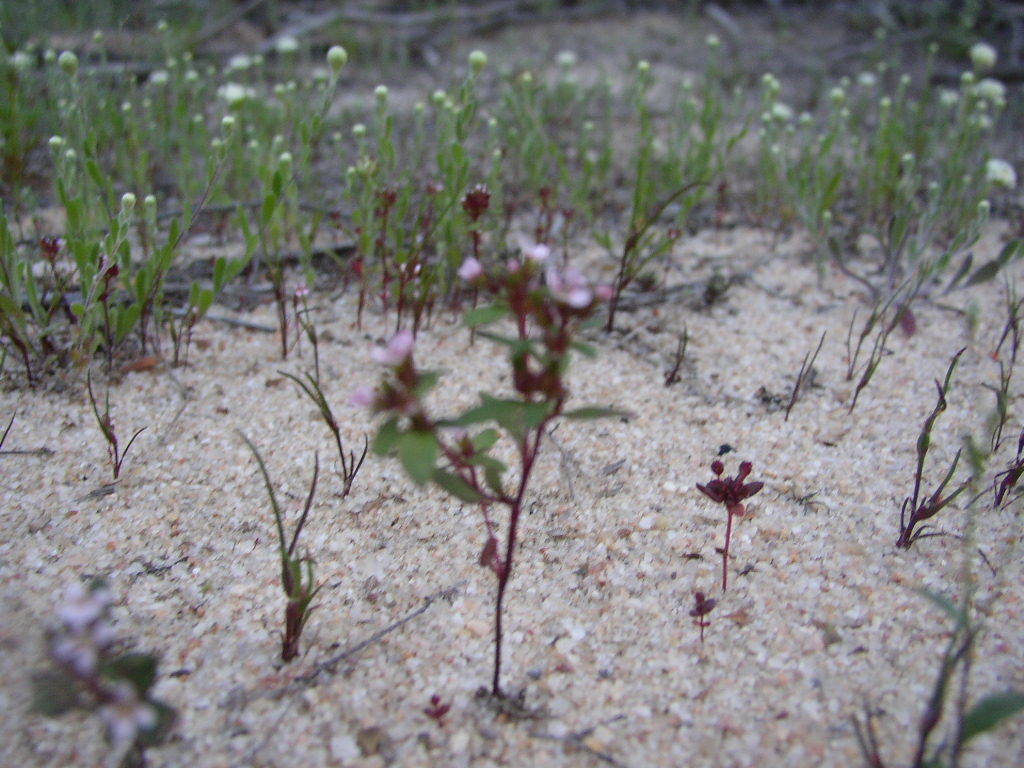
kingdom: Plantae
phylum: Tracheophyta
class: Magnoliopsida
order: Asterales
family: Stylidiaceae
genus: Levenhookia
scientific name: Levenhookia murfetii
